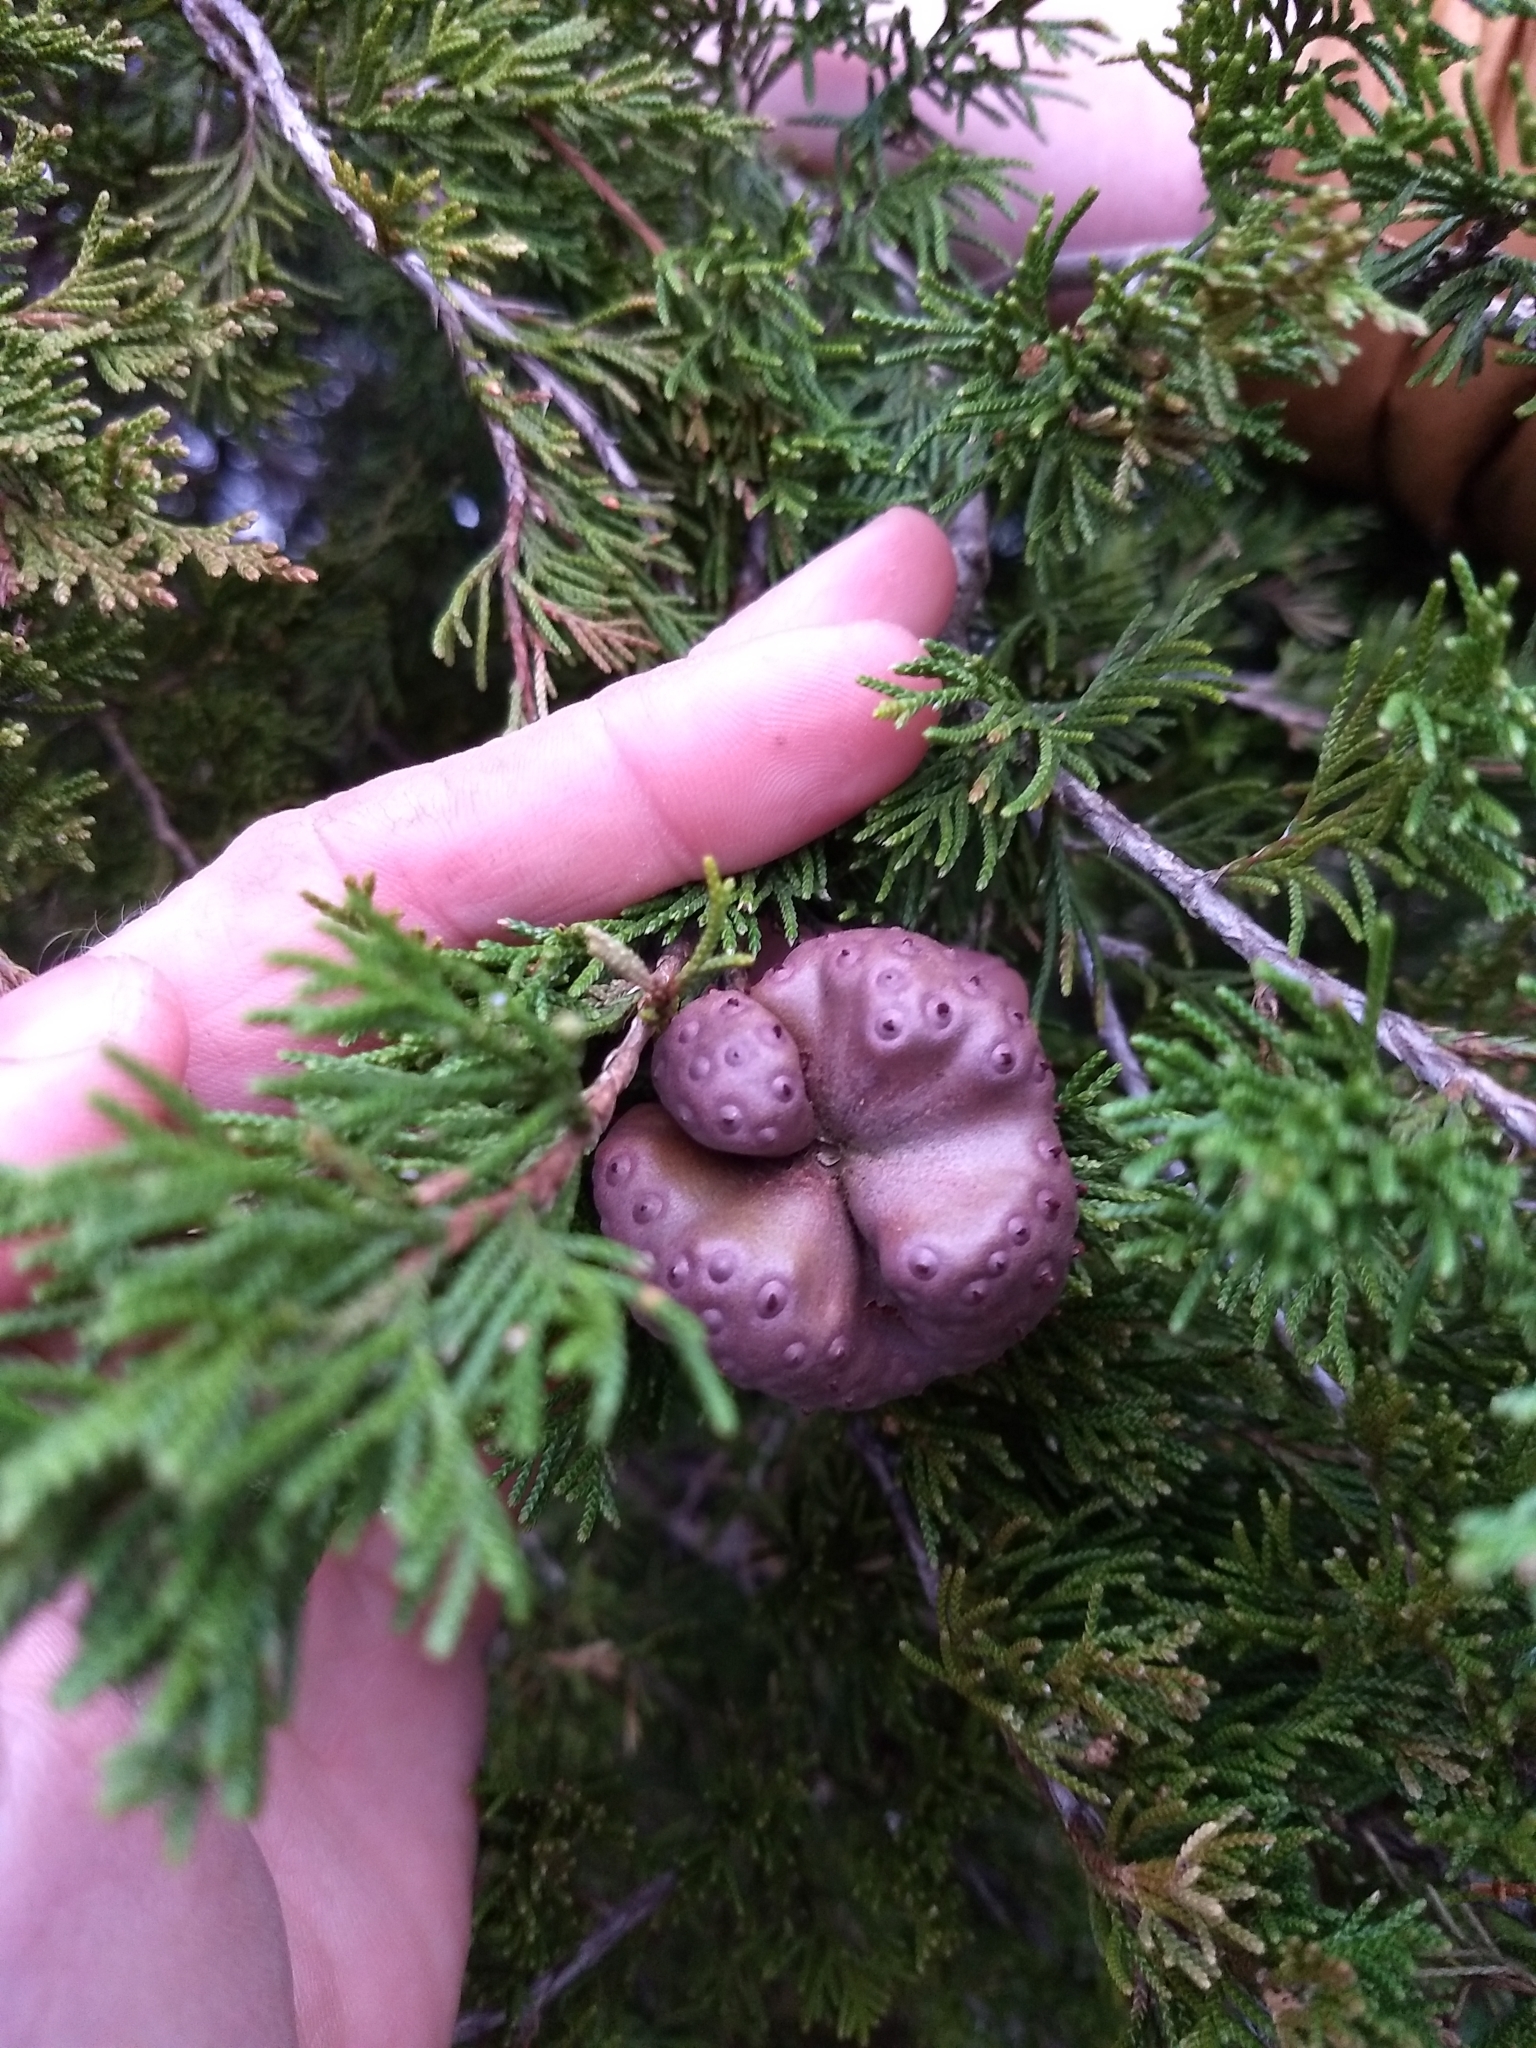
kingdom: Fungi
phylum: Basidiomycota
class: Pucciniomycetes
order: Pucciniales
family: Gymnosporangiaceae
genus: Gymnosporangium
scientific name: Gymnosporangium juniperi-virginianae
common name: Juniper-apple rust
